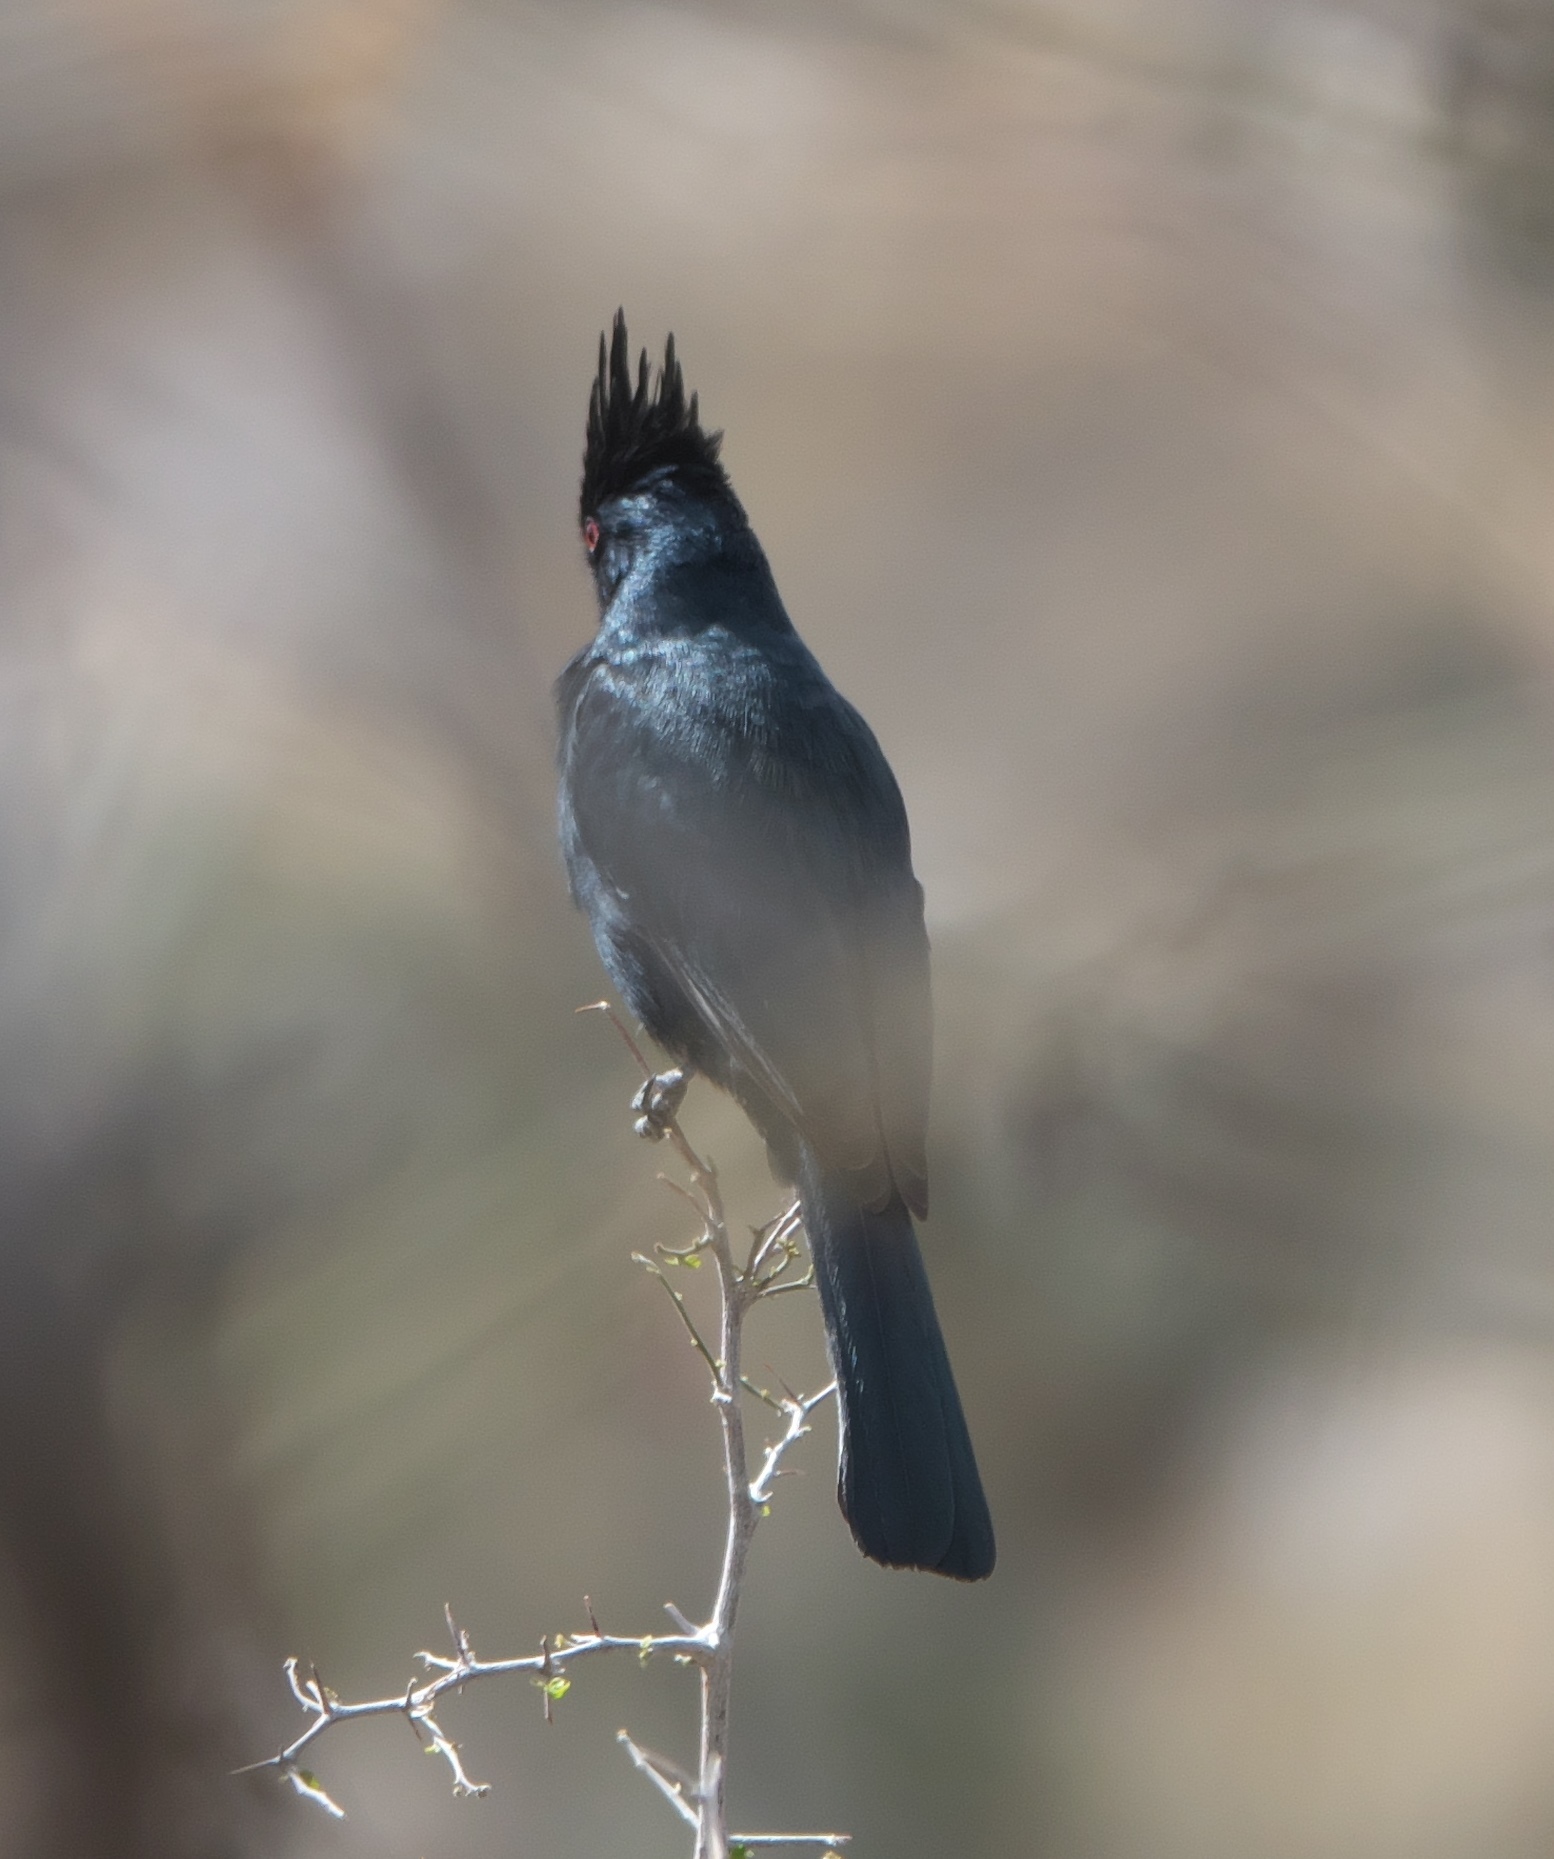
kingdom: Animalia
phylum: Chordata
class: Aves
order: Passeriformes
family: Ptilogonatidae
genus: Phainopepla
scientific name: Phainopepla nitens
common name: Phainopepla
